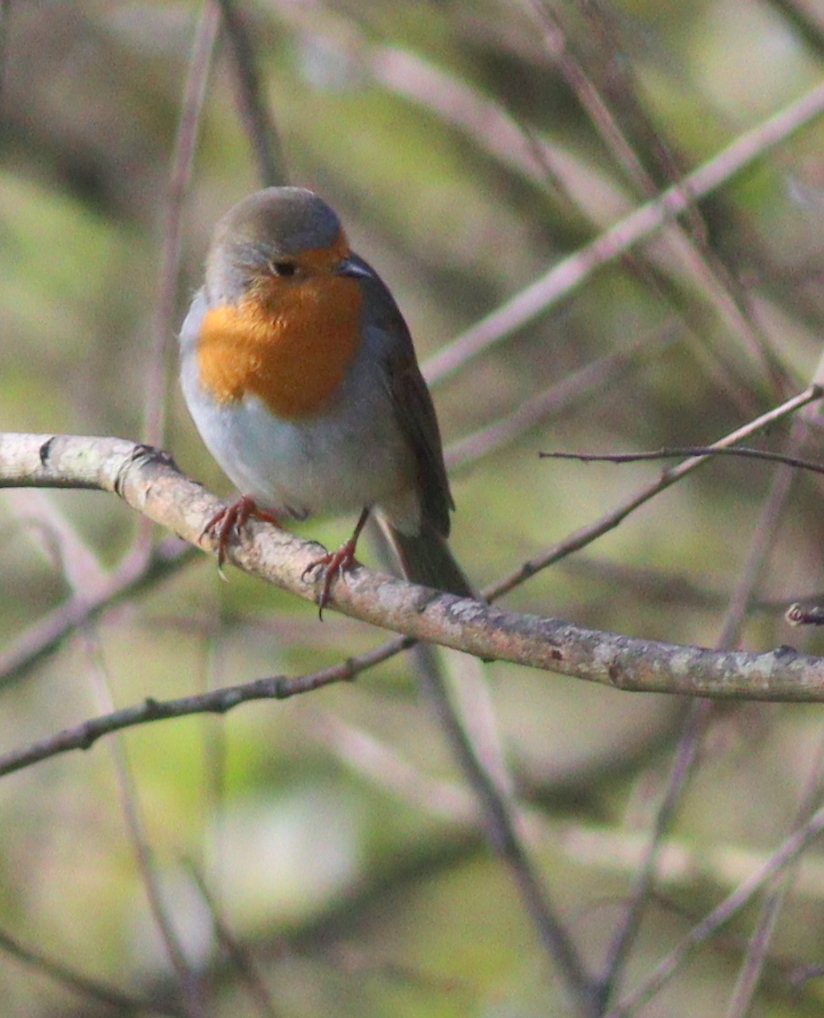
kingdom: Animalia
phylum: Chordata
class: Aves
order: Passeriformes
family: Muscicapidae
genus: Erithacus
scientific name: Erithacus rubecula
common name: European robin
